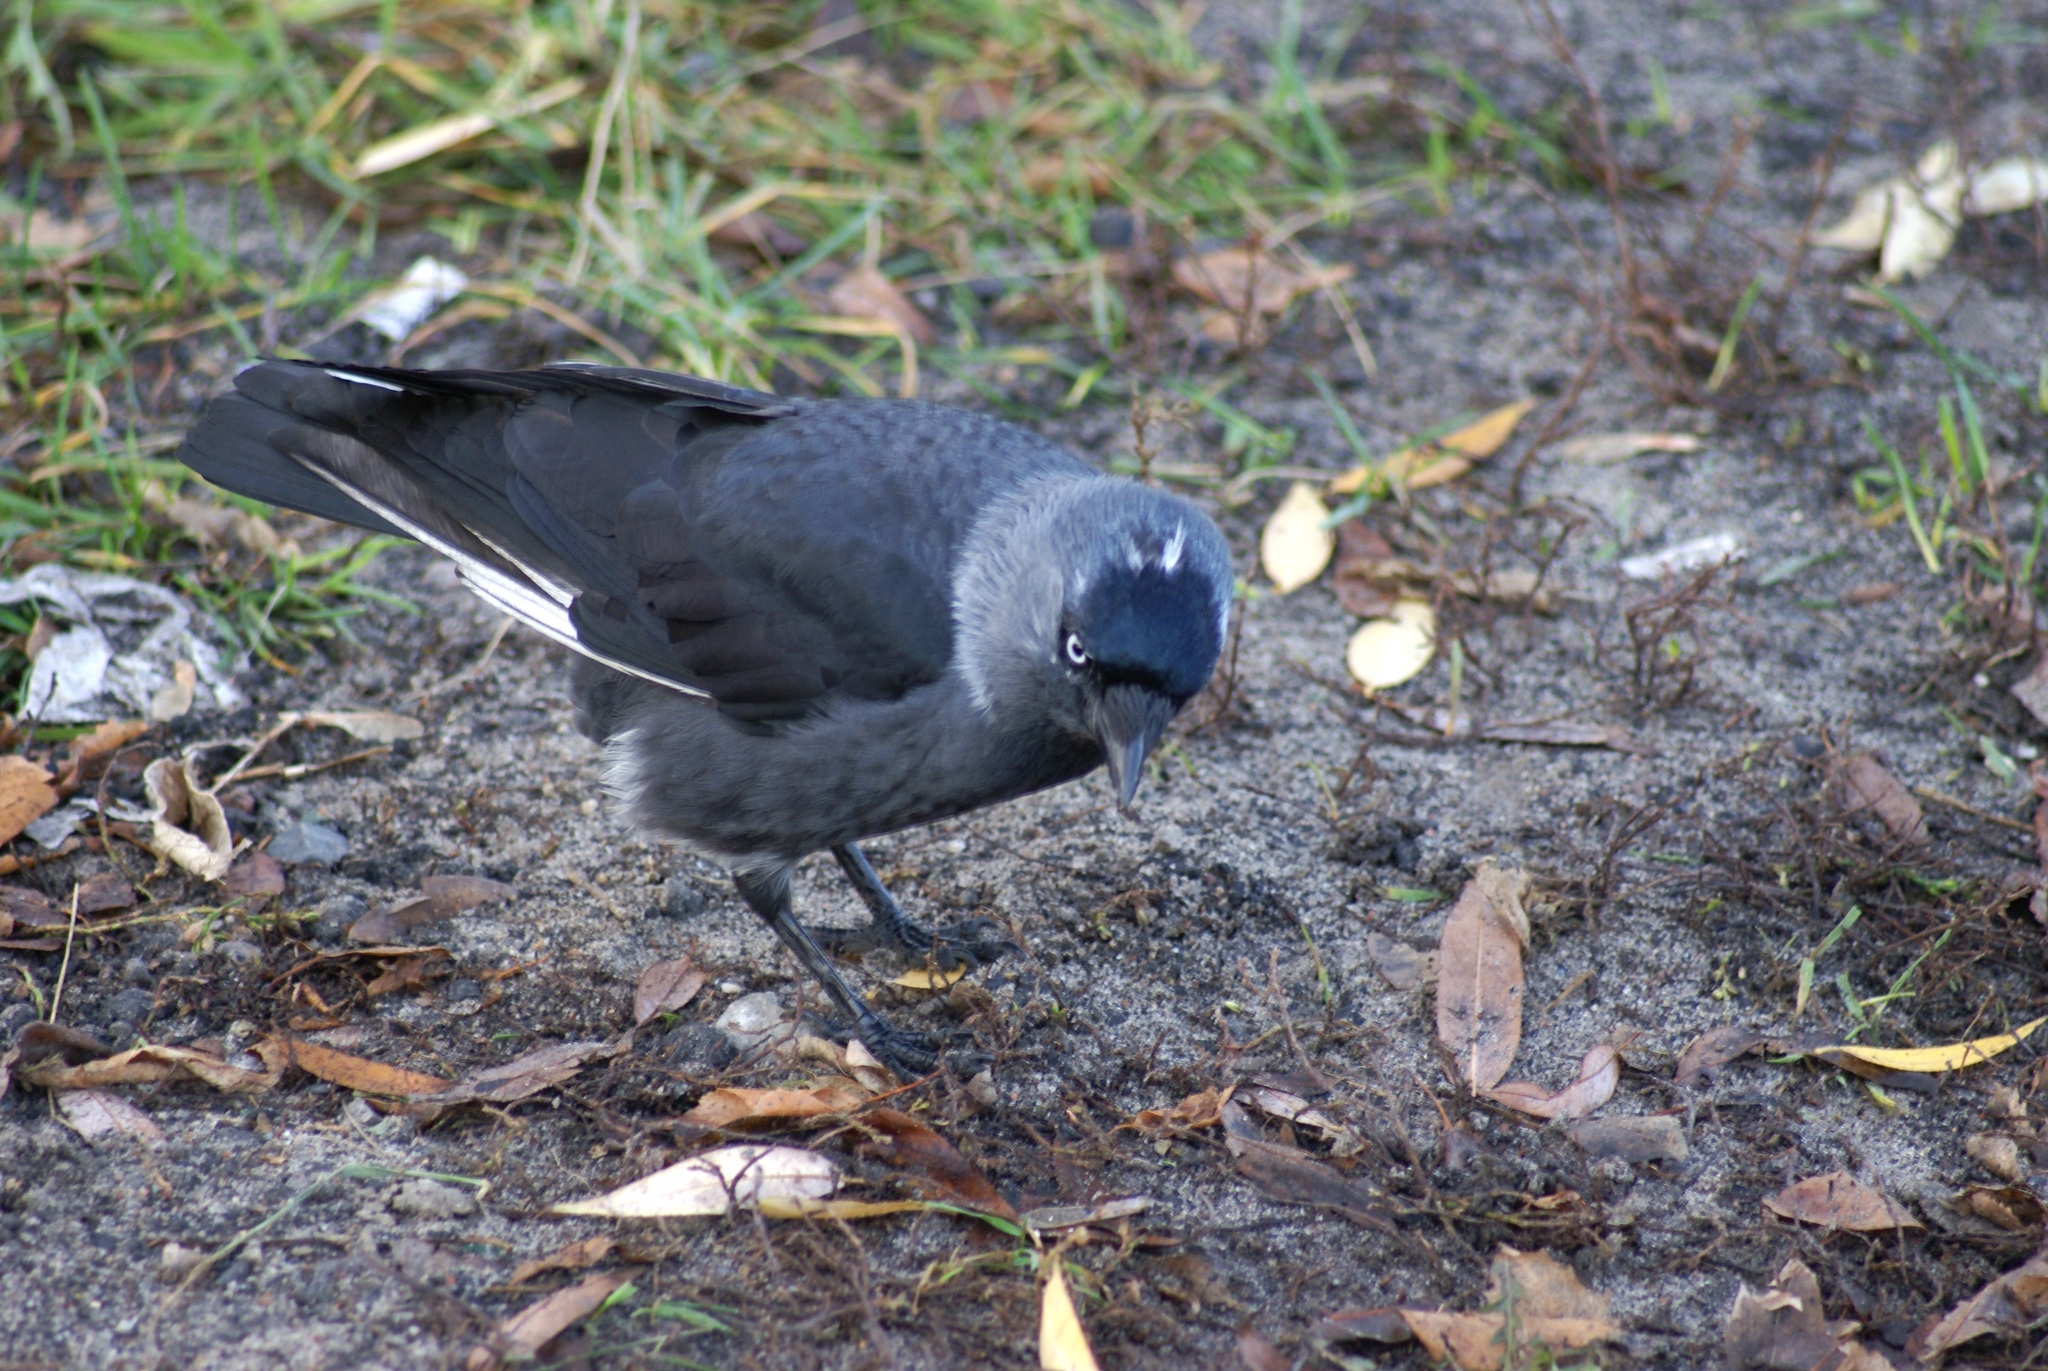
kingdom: Animalia
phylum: Chordata
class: Aves
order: Passeriformes
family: Corvidae
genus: Coloeus
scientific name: Coloeus monedula
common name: Western jackdaw
